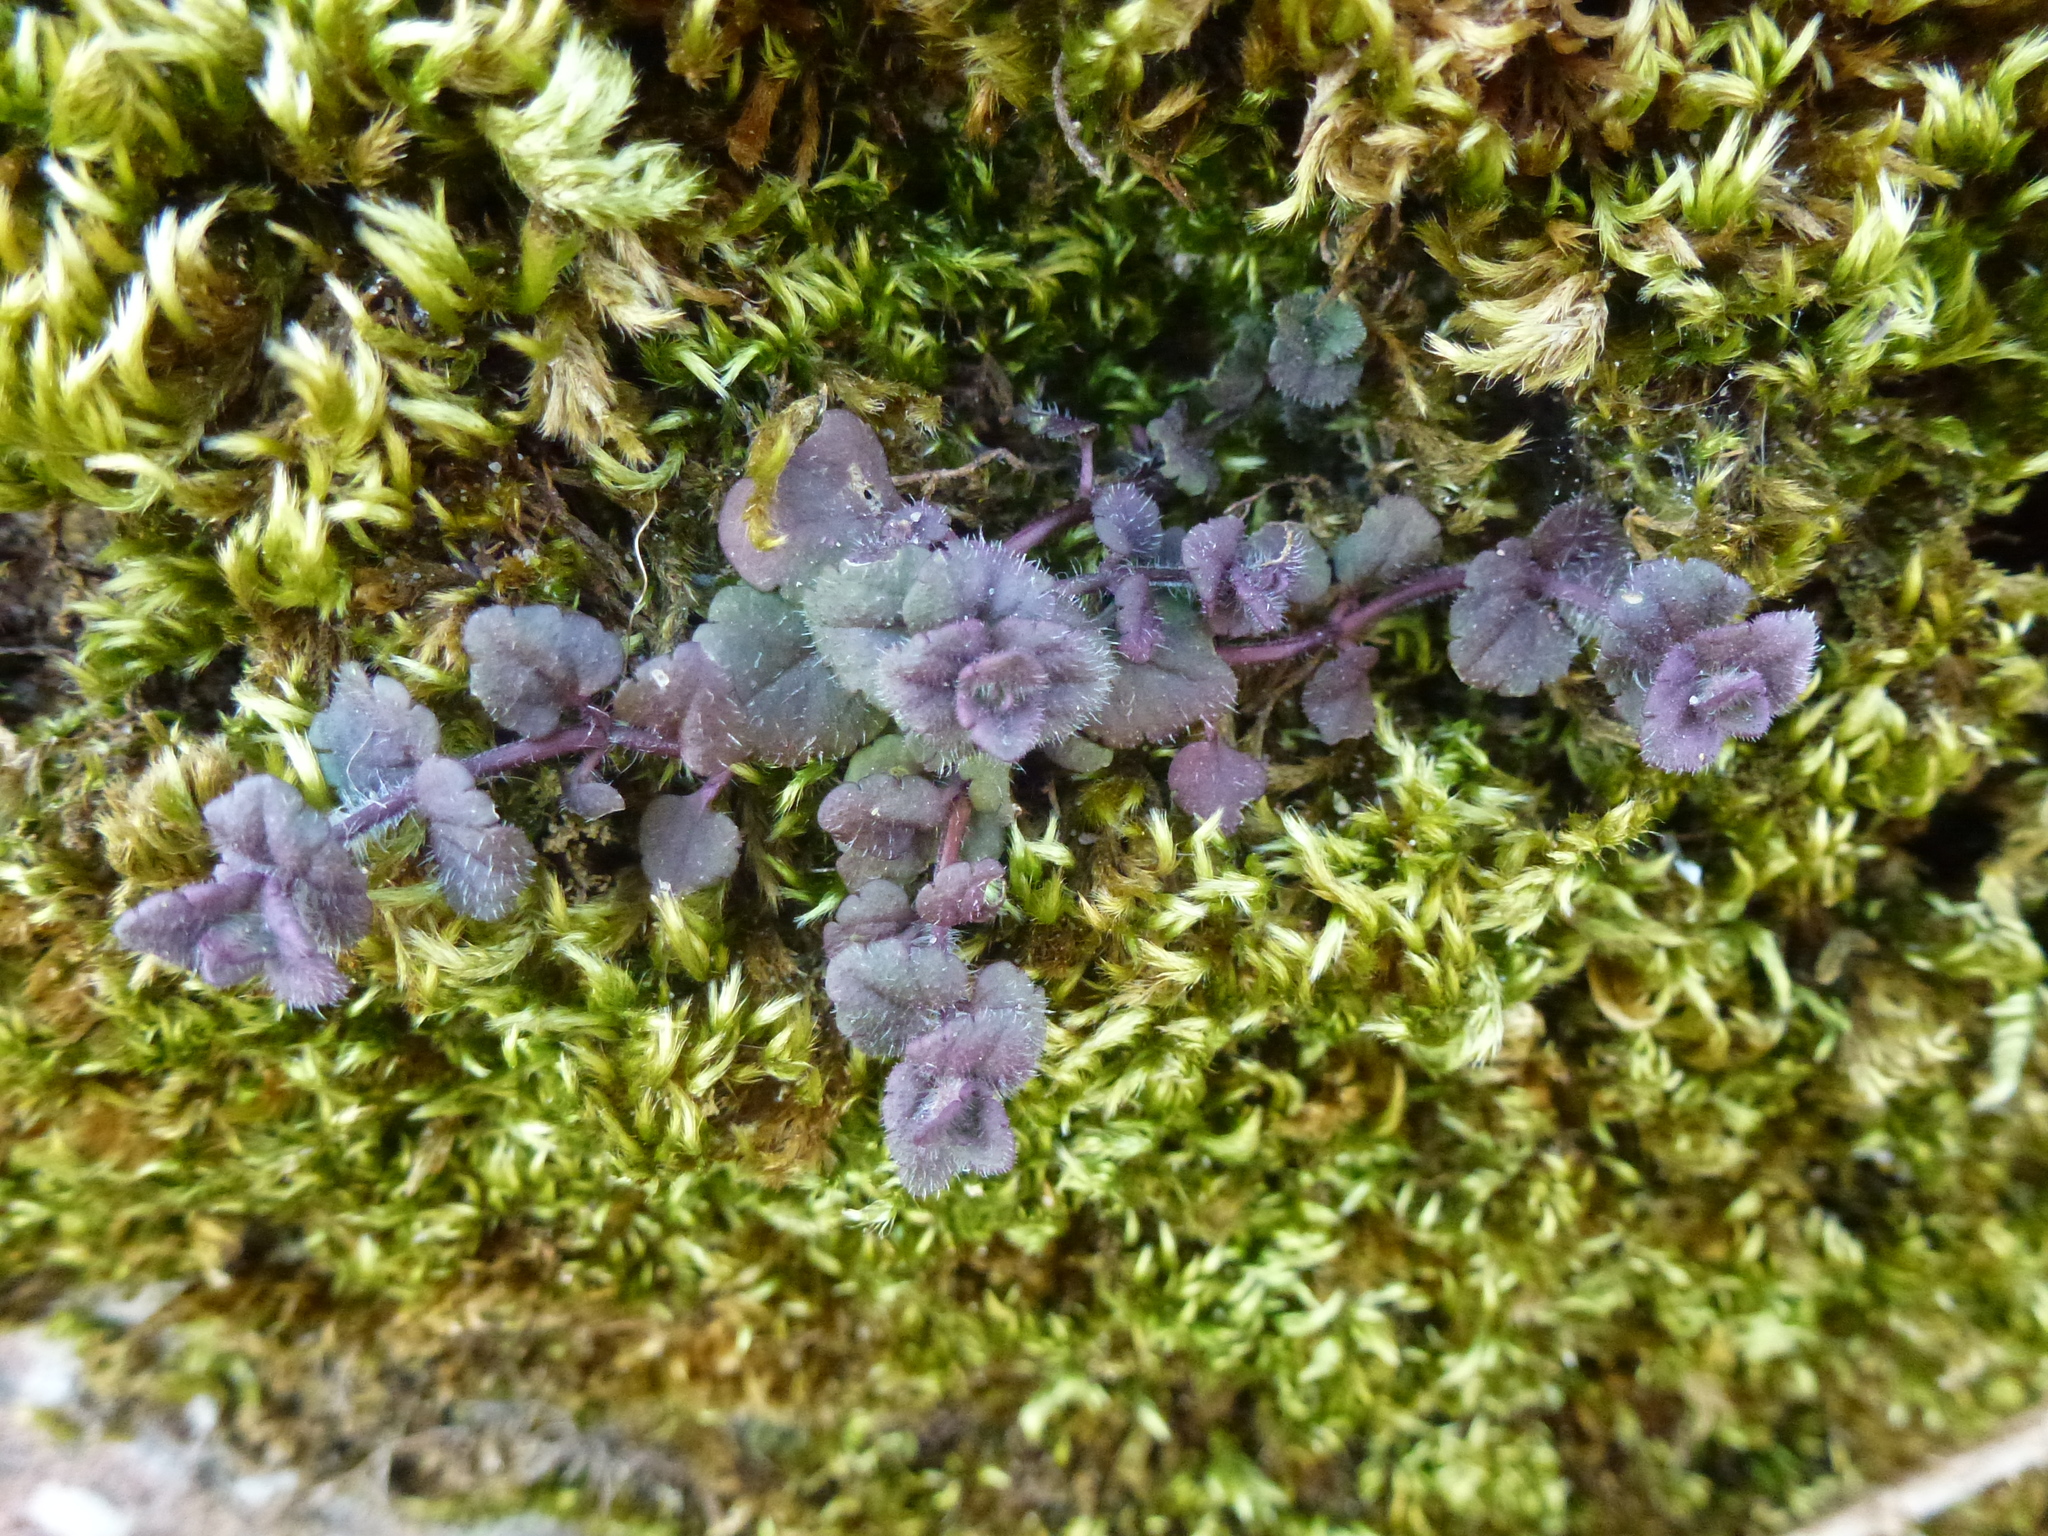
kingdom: Plantae
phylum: Tracheophyta
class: Magnoliopsida
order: Lamiales
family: Plantaginaceae
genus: Veronica
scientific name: Veronica hederifolia
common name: Ivy-leaved speedwell
